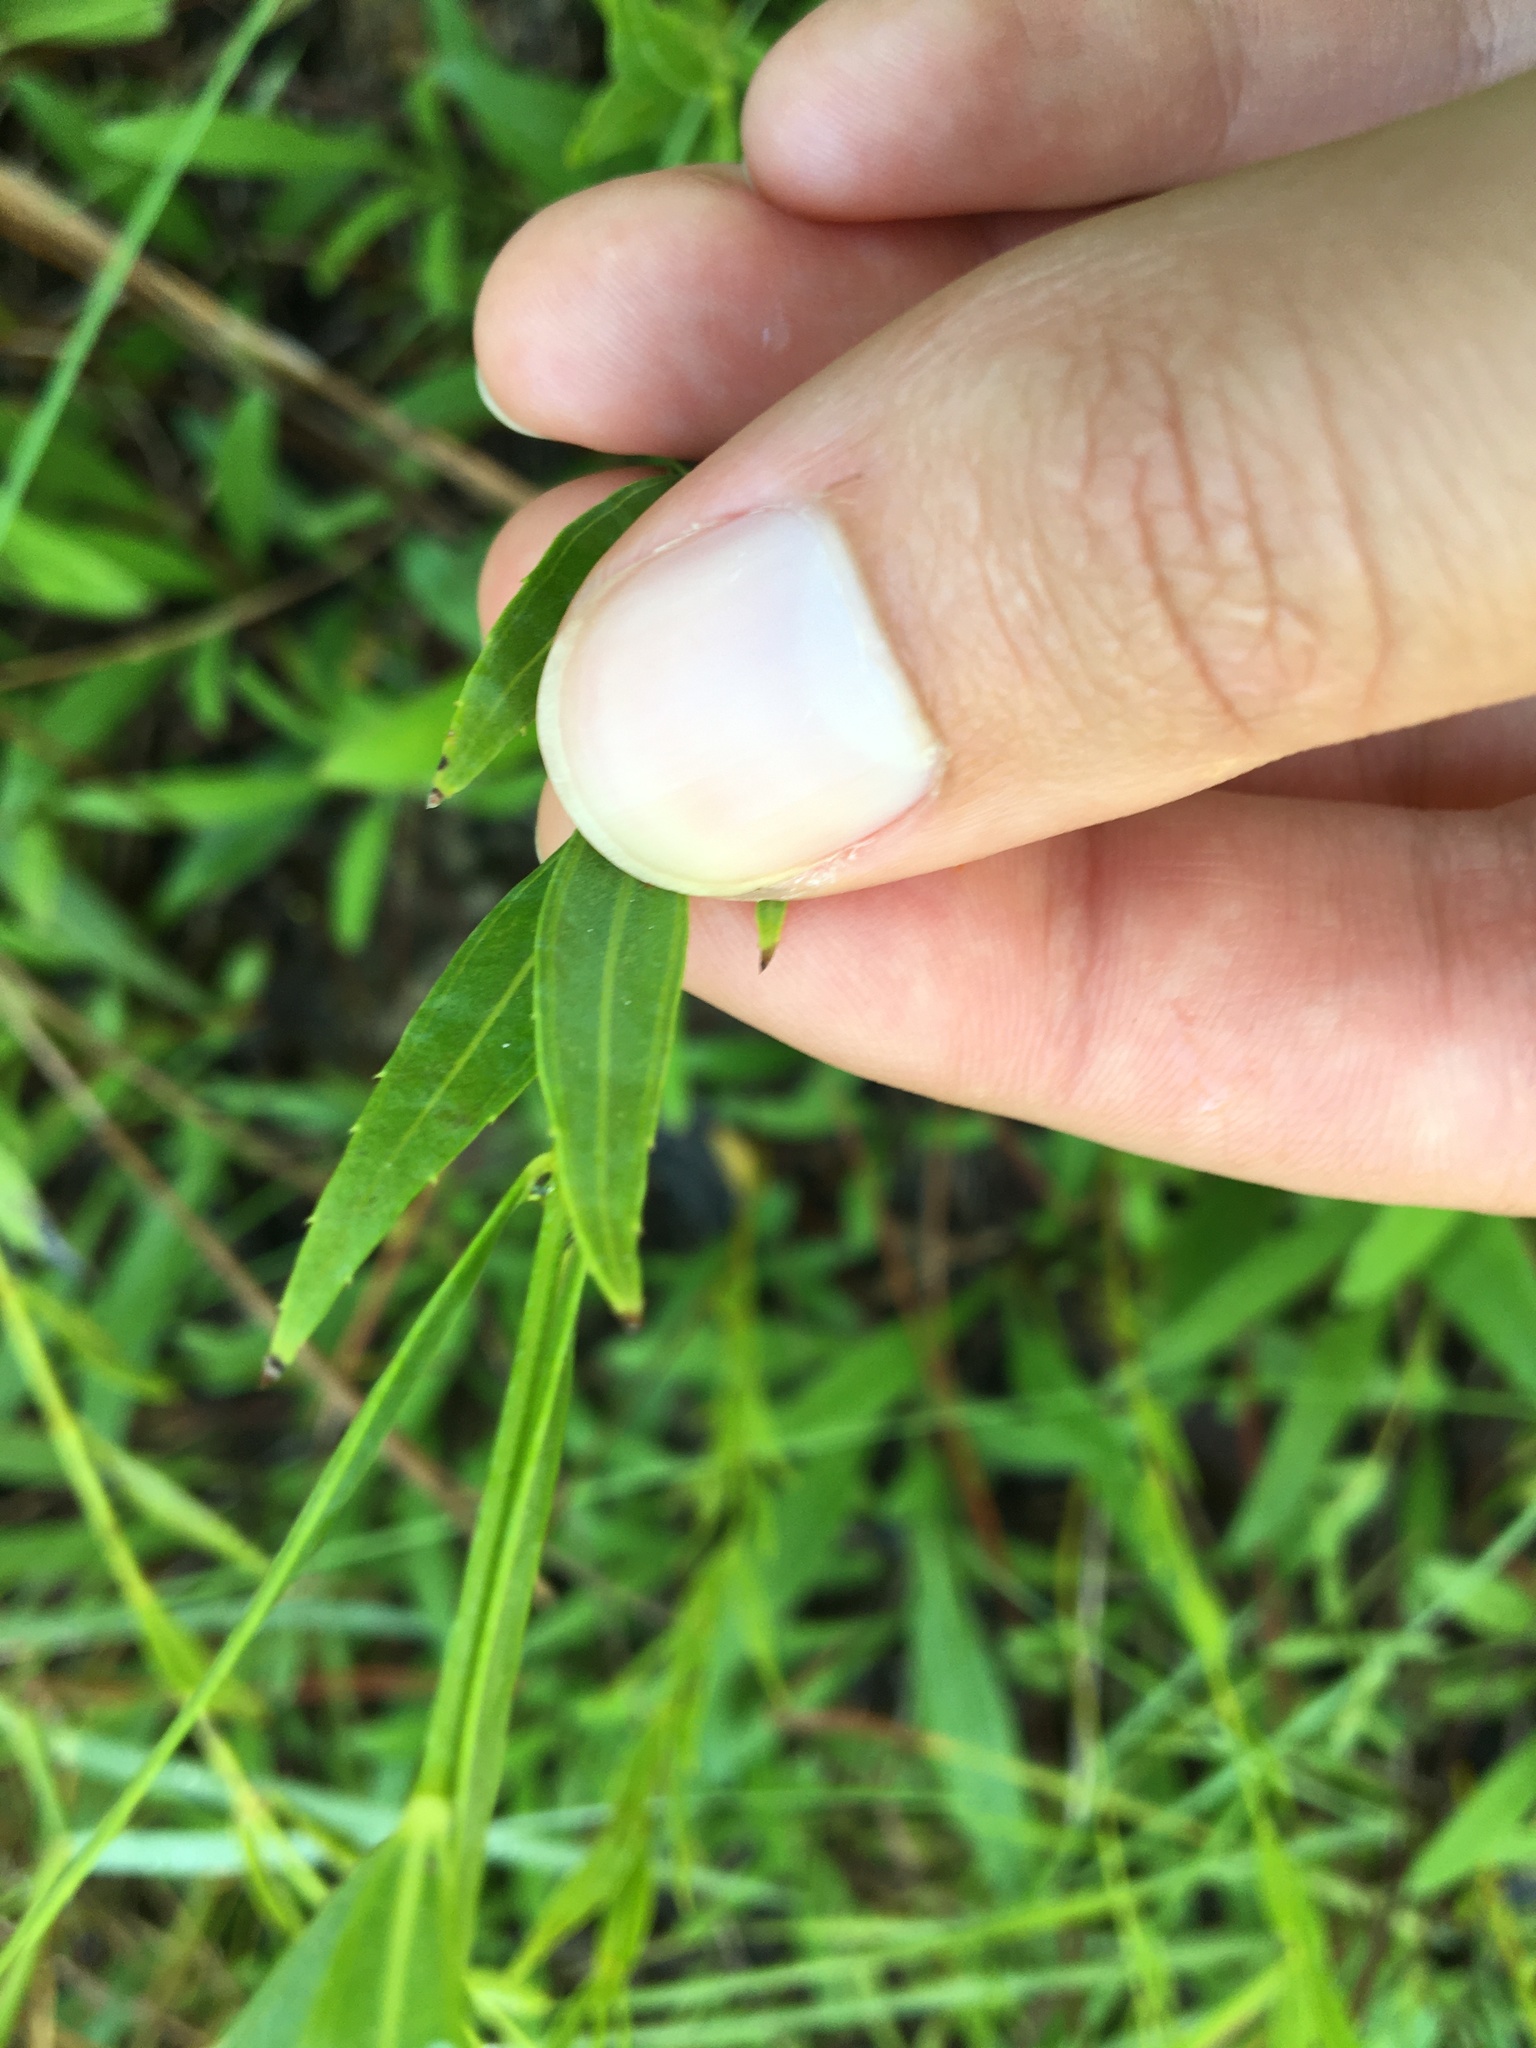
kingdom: Plantae
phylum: Tracheophyta
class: Magnoliopsida
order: Myrtales
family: Melastomataceae
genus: Rhexia
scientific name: Rhexia alifanus
